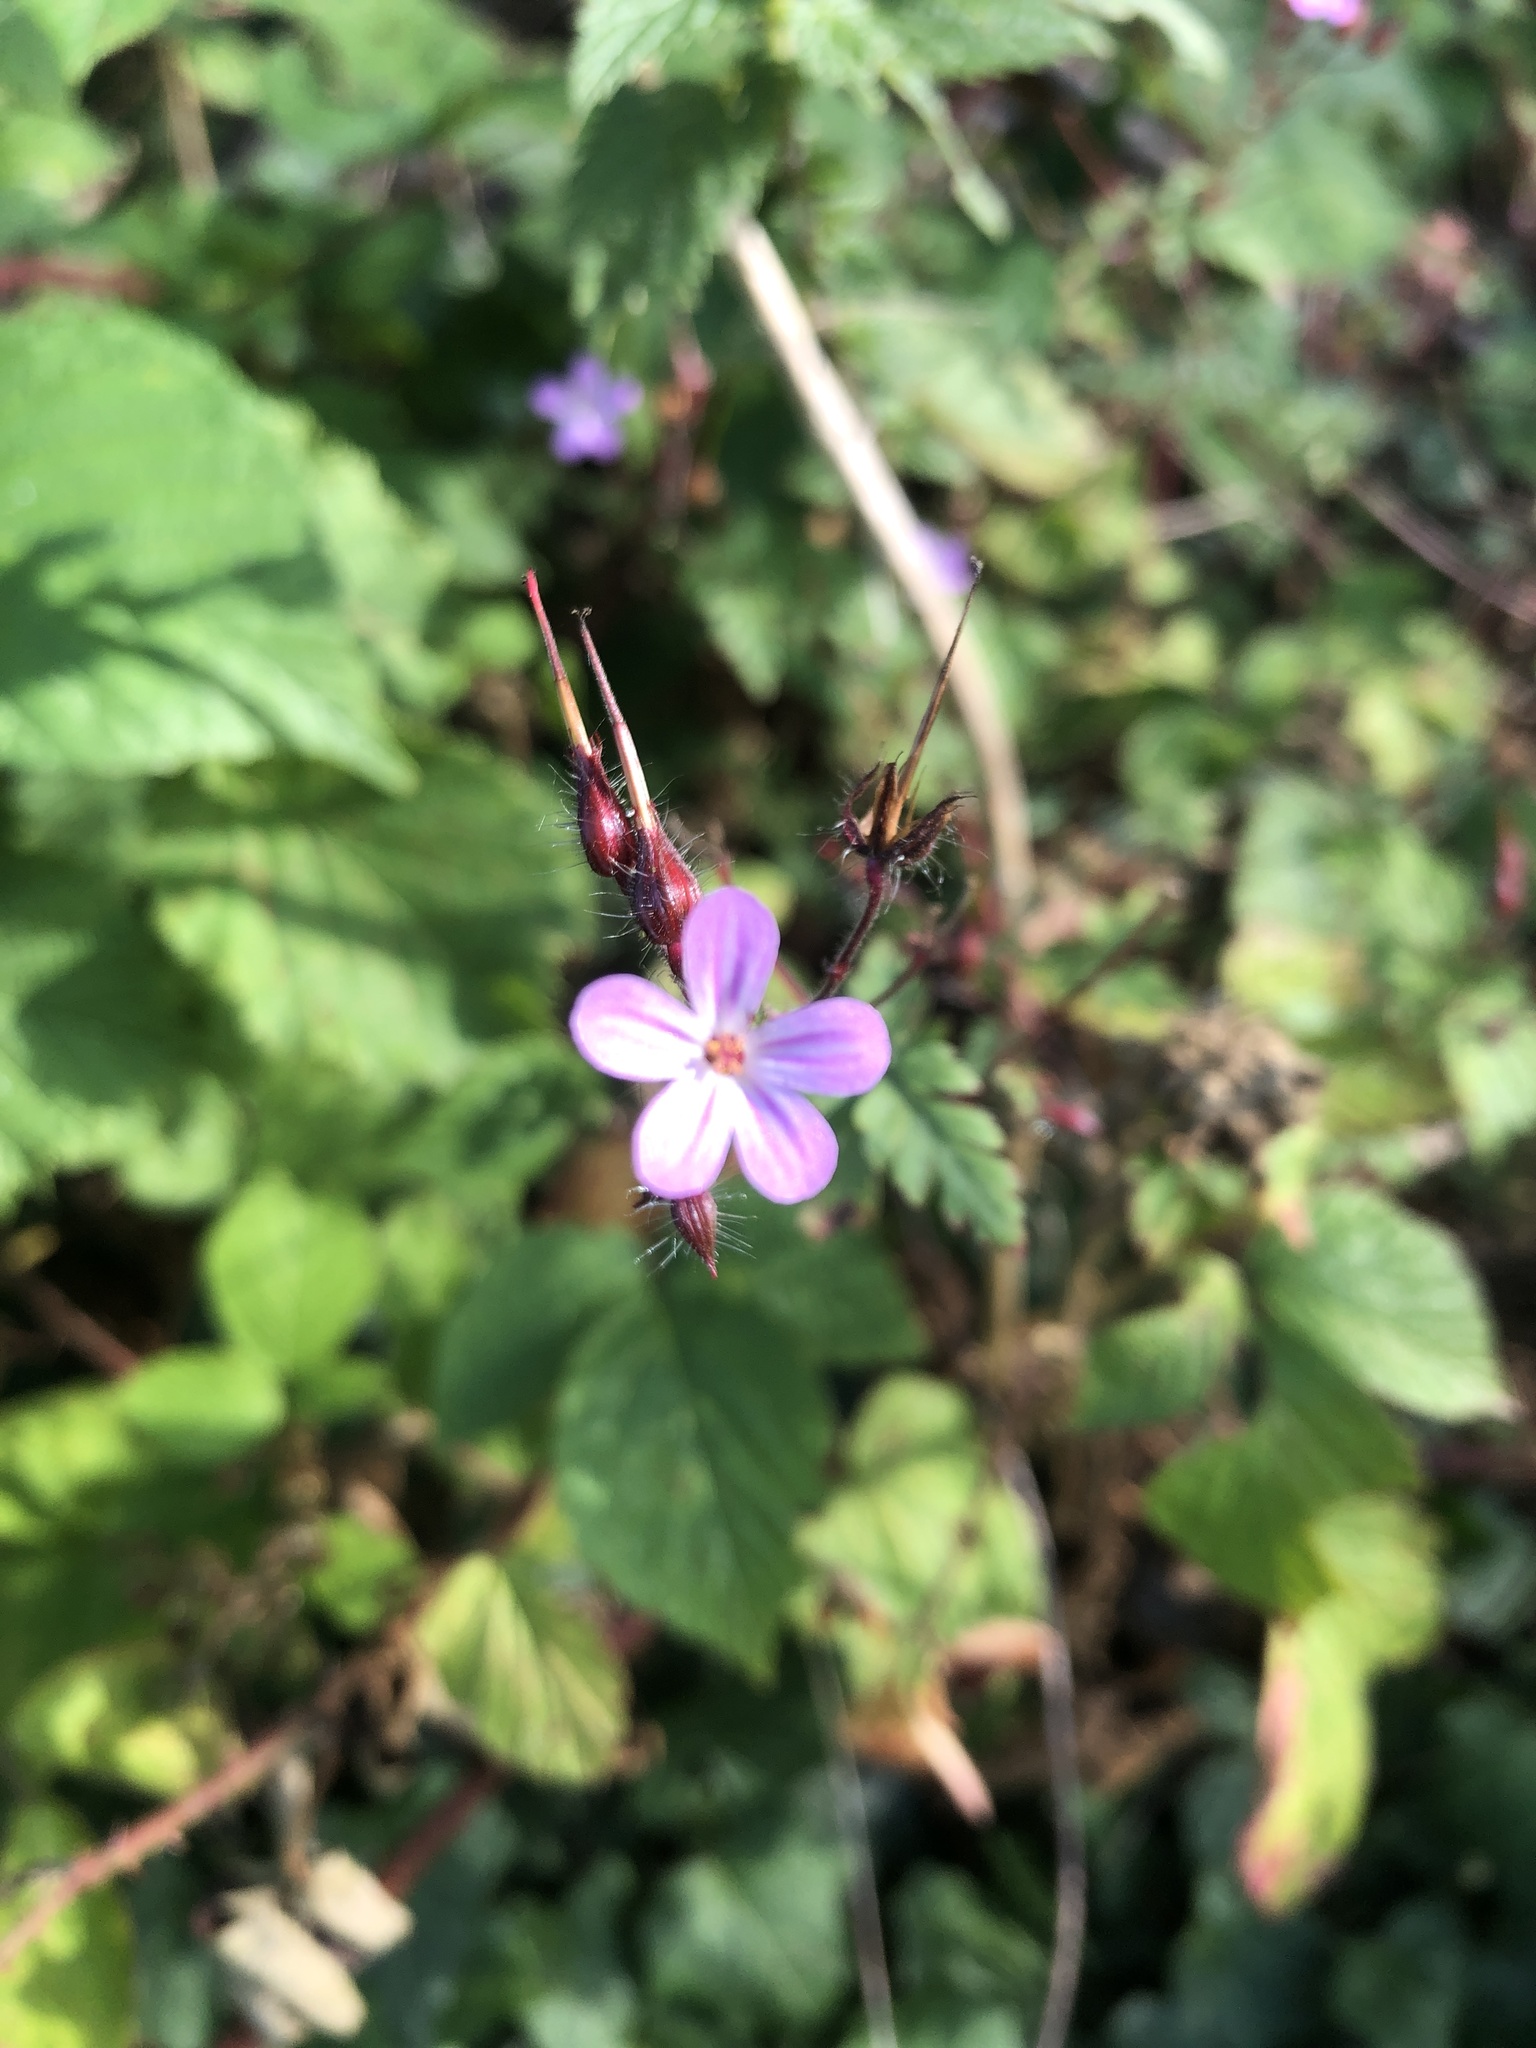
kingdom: Plantae
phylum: Tracheophyta
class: Magnoliopsida
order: Geraniales
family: Geraniaceae
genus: Geranium
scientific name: Geranium robertianum
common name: Herb-robert
